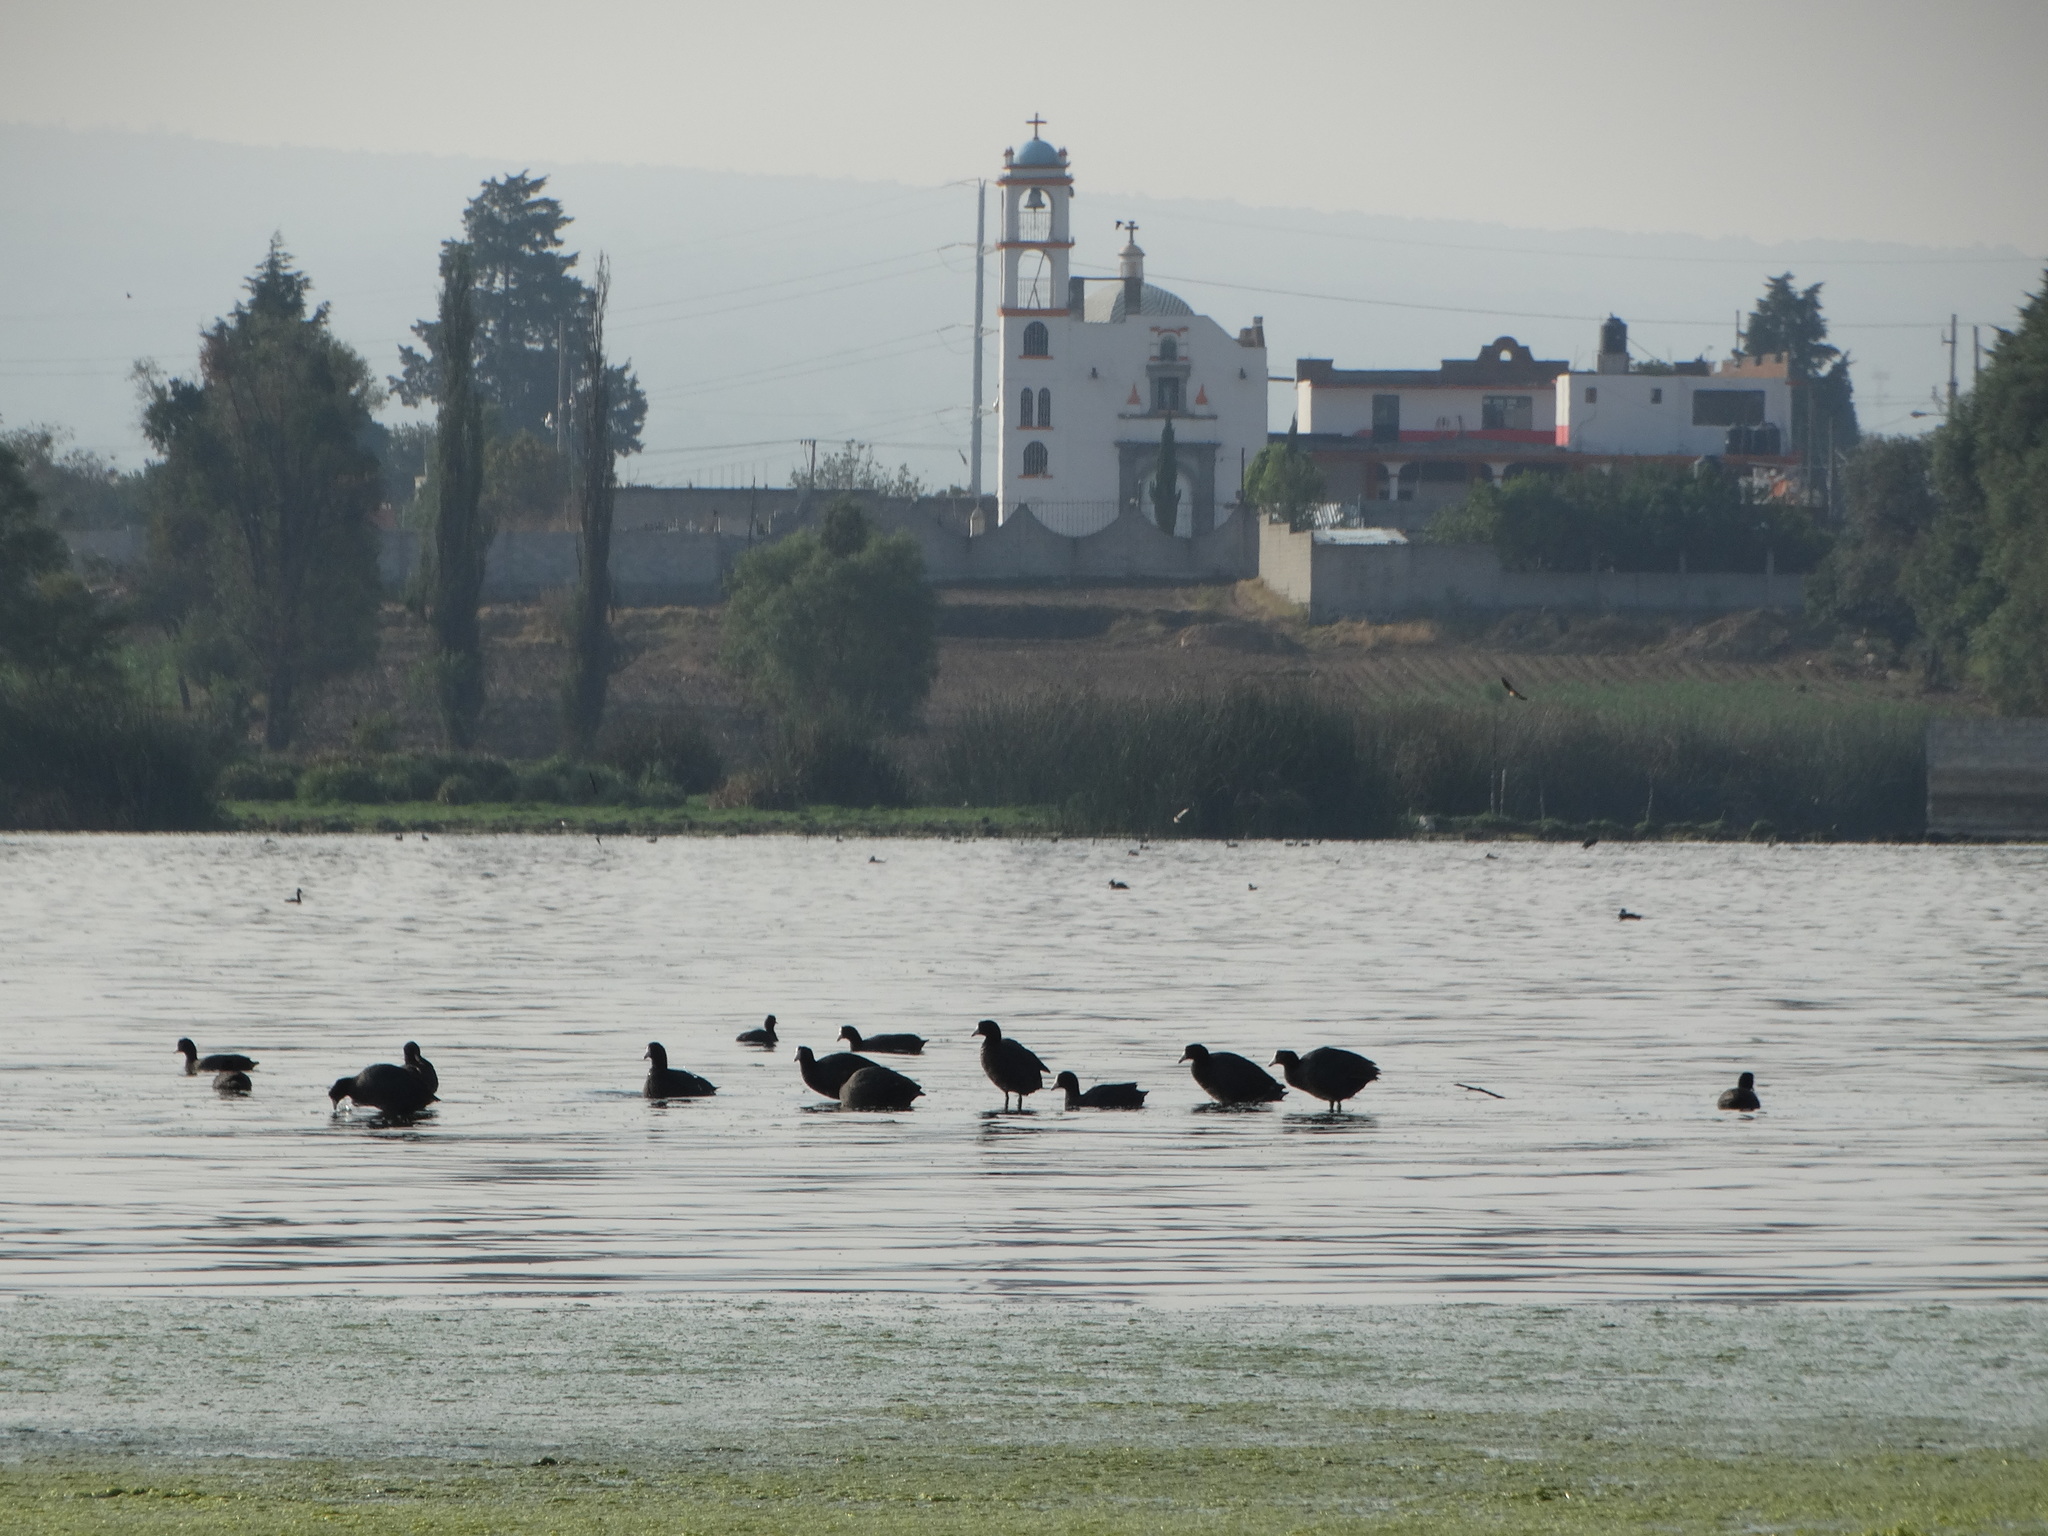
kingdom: Animalia
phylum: Chordata
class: Aves
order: Gruiformes
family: Rallidae
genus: Fulica
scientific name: Fulica americana
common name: American coot
